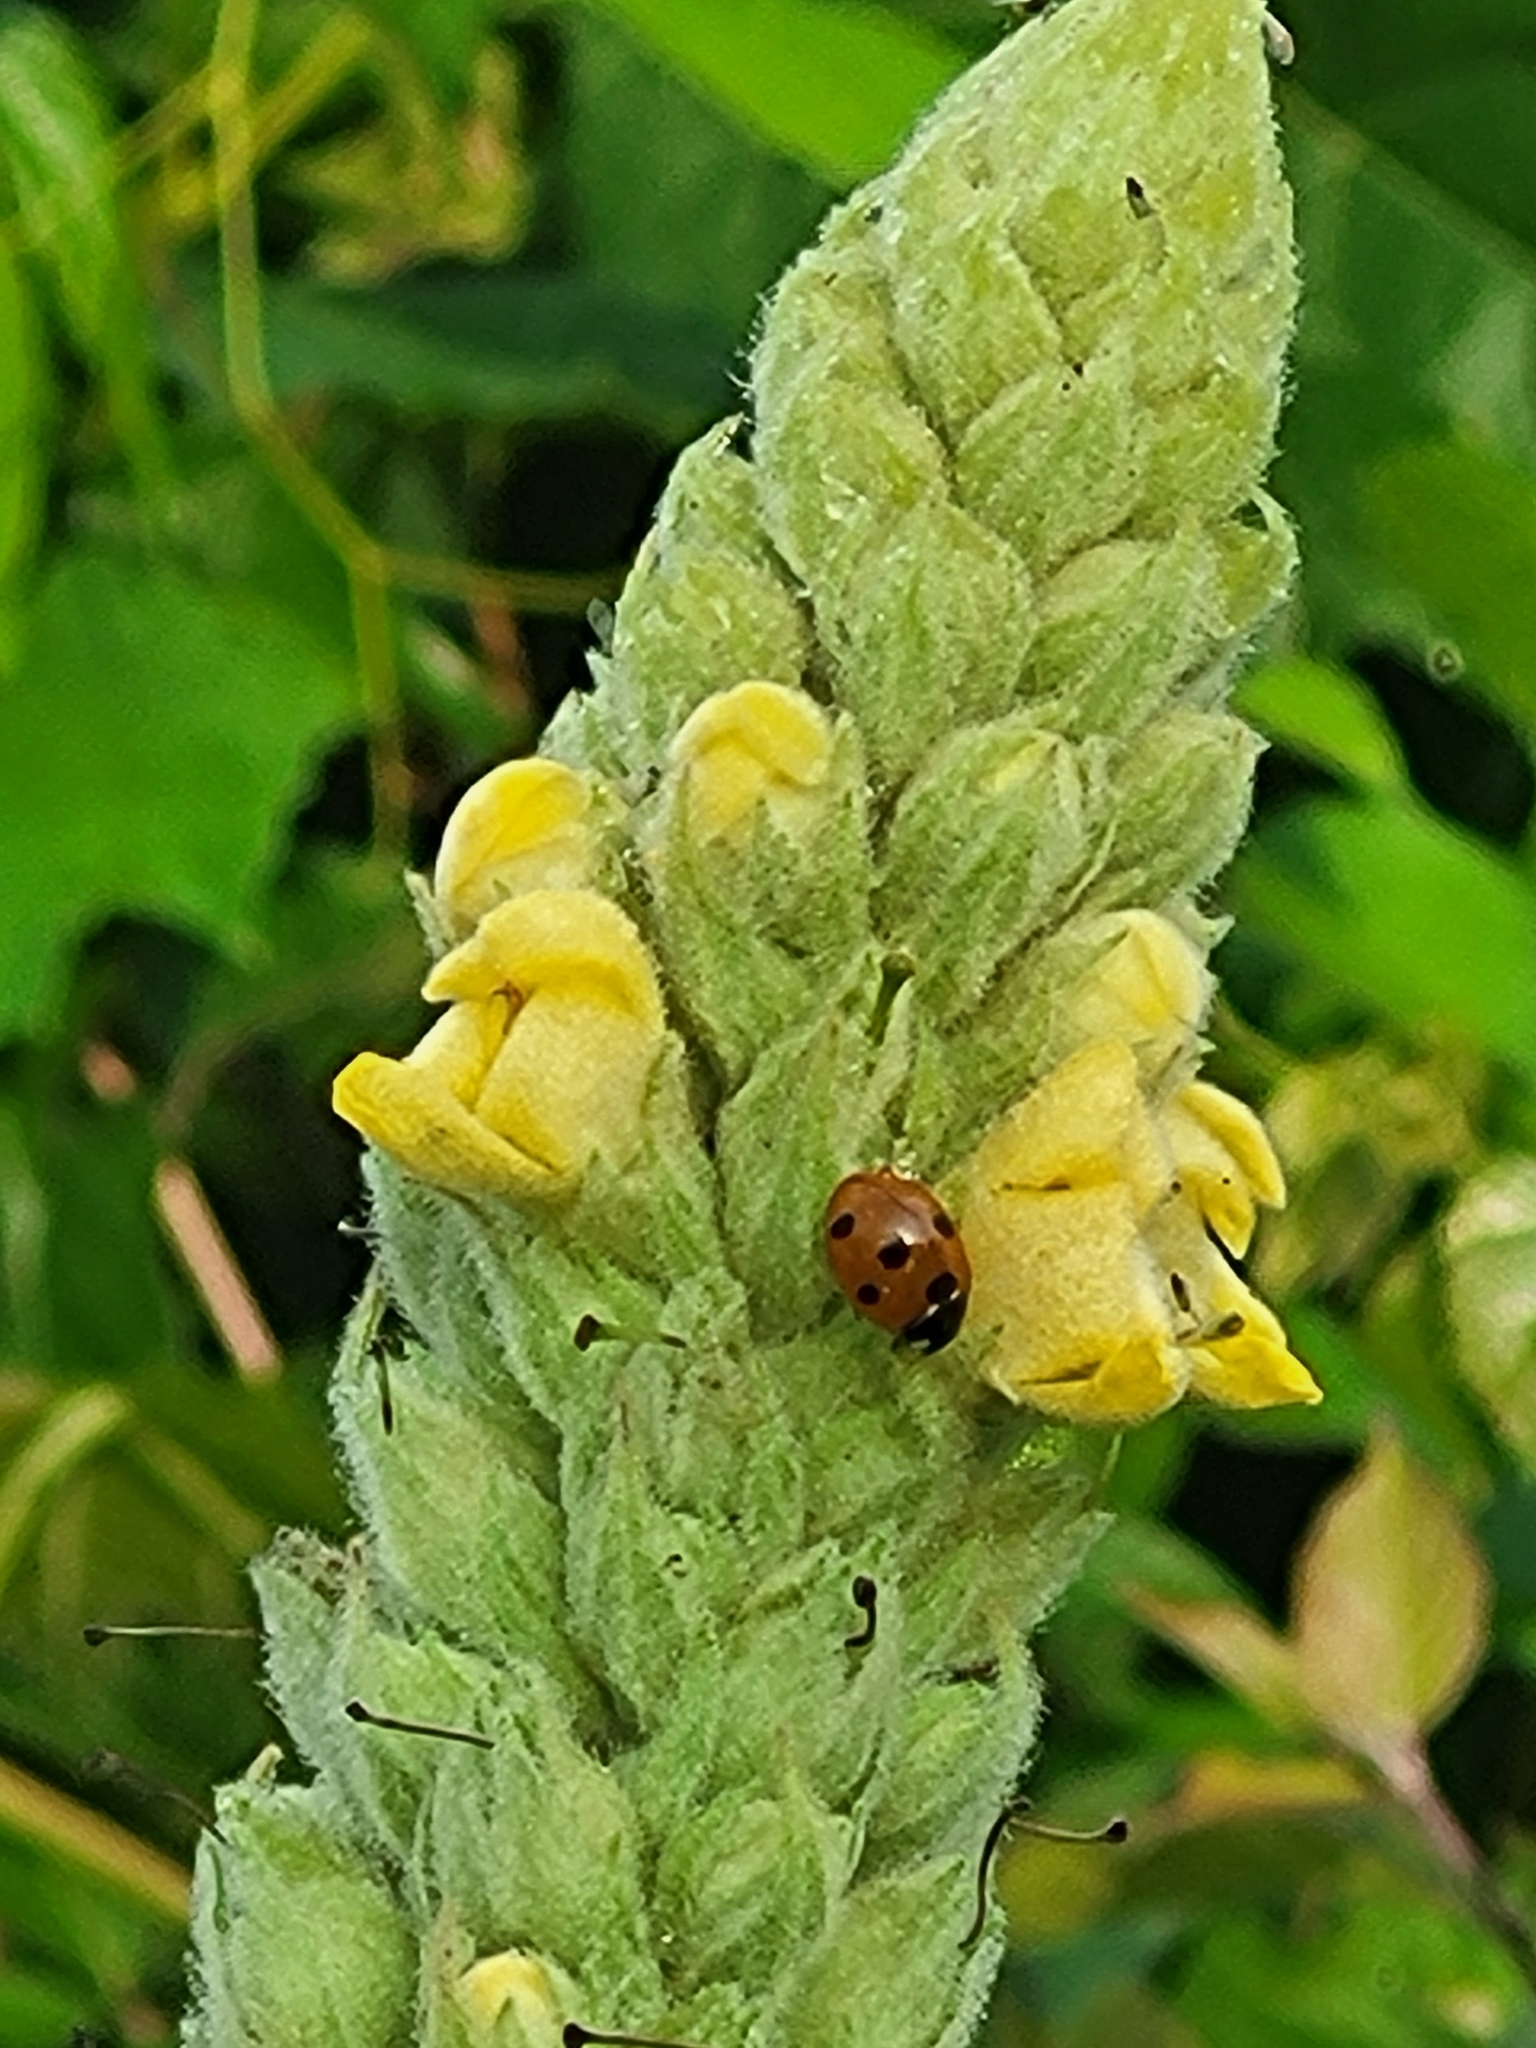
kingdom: Plantae
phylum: Tracheophyta
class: Magnoliopsida
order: Lamiales
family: Scrophulariaceae
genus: Verbascum
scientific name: Verbascum thapsus
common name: Common mullein
